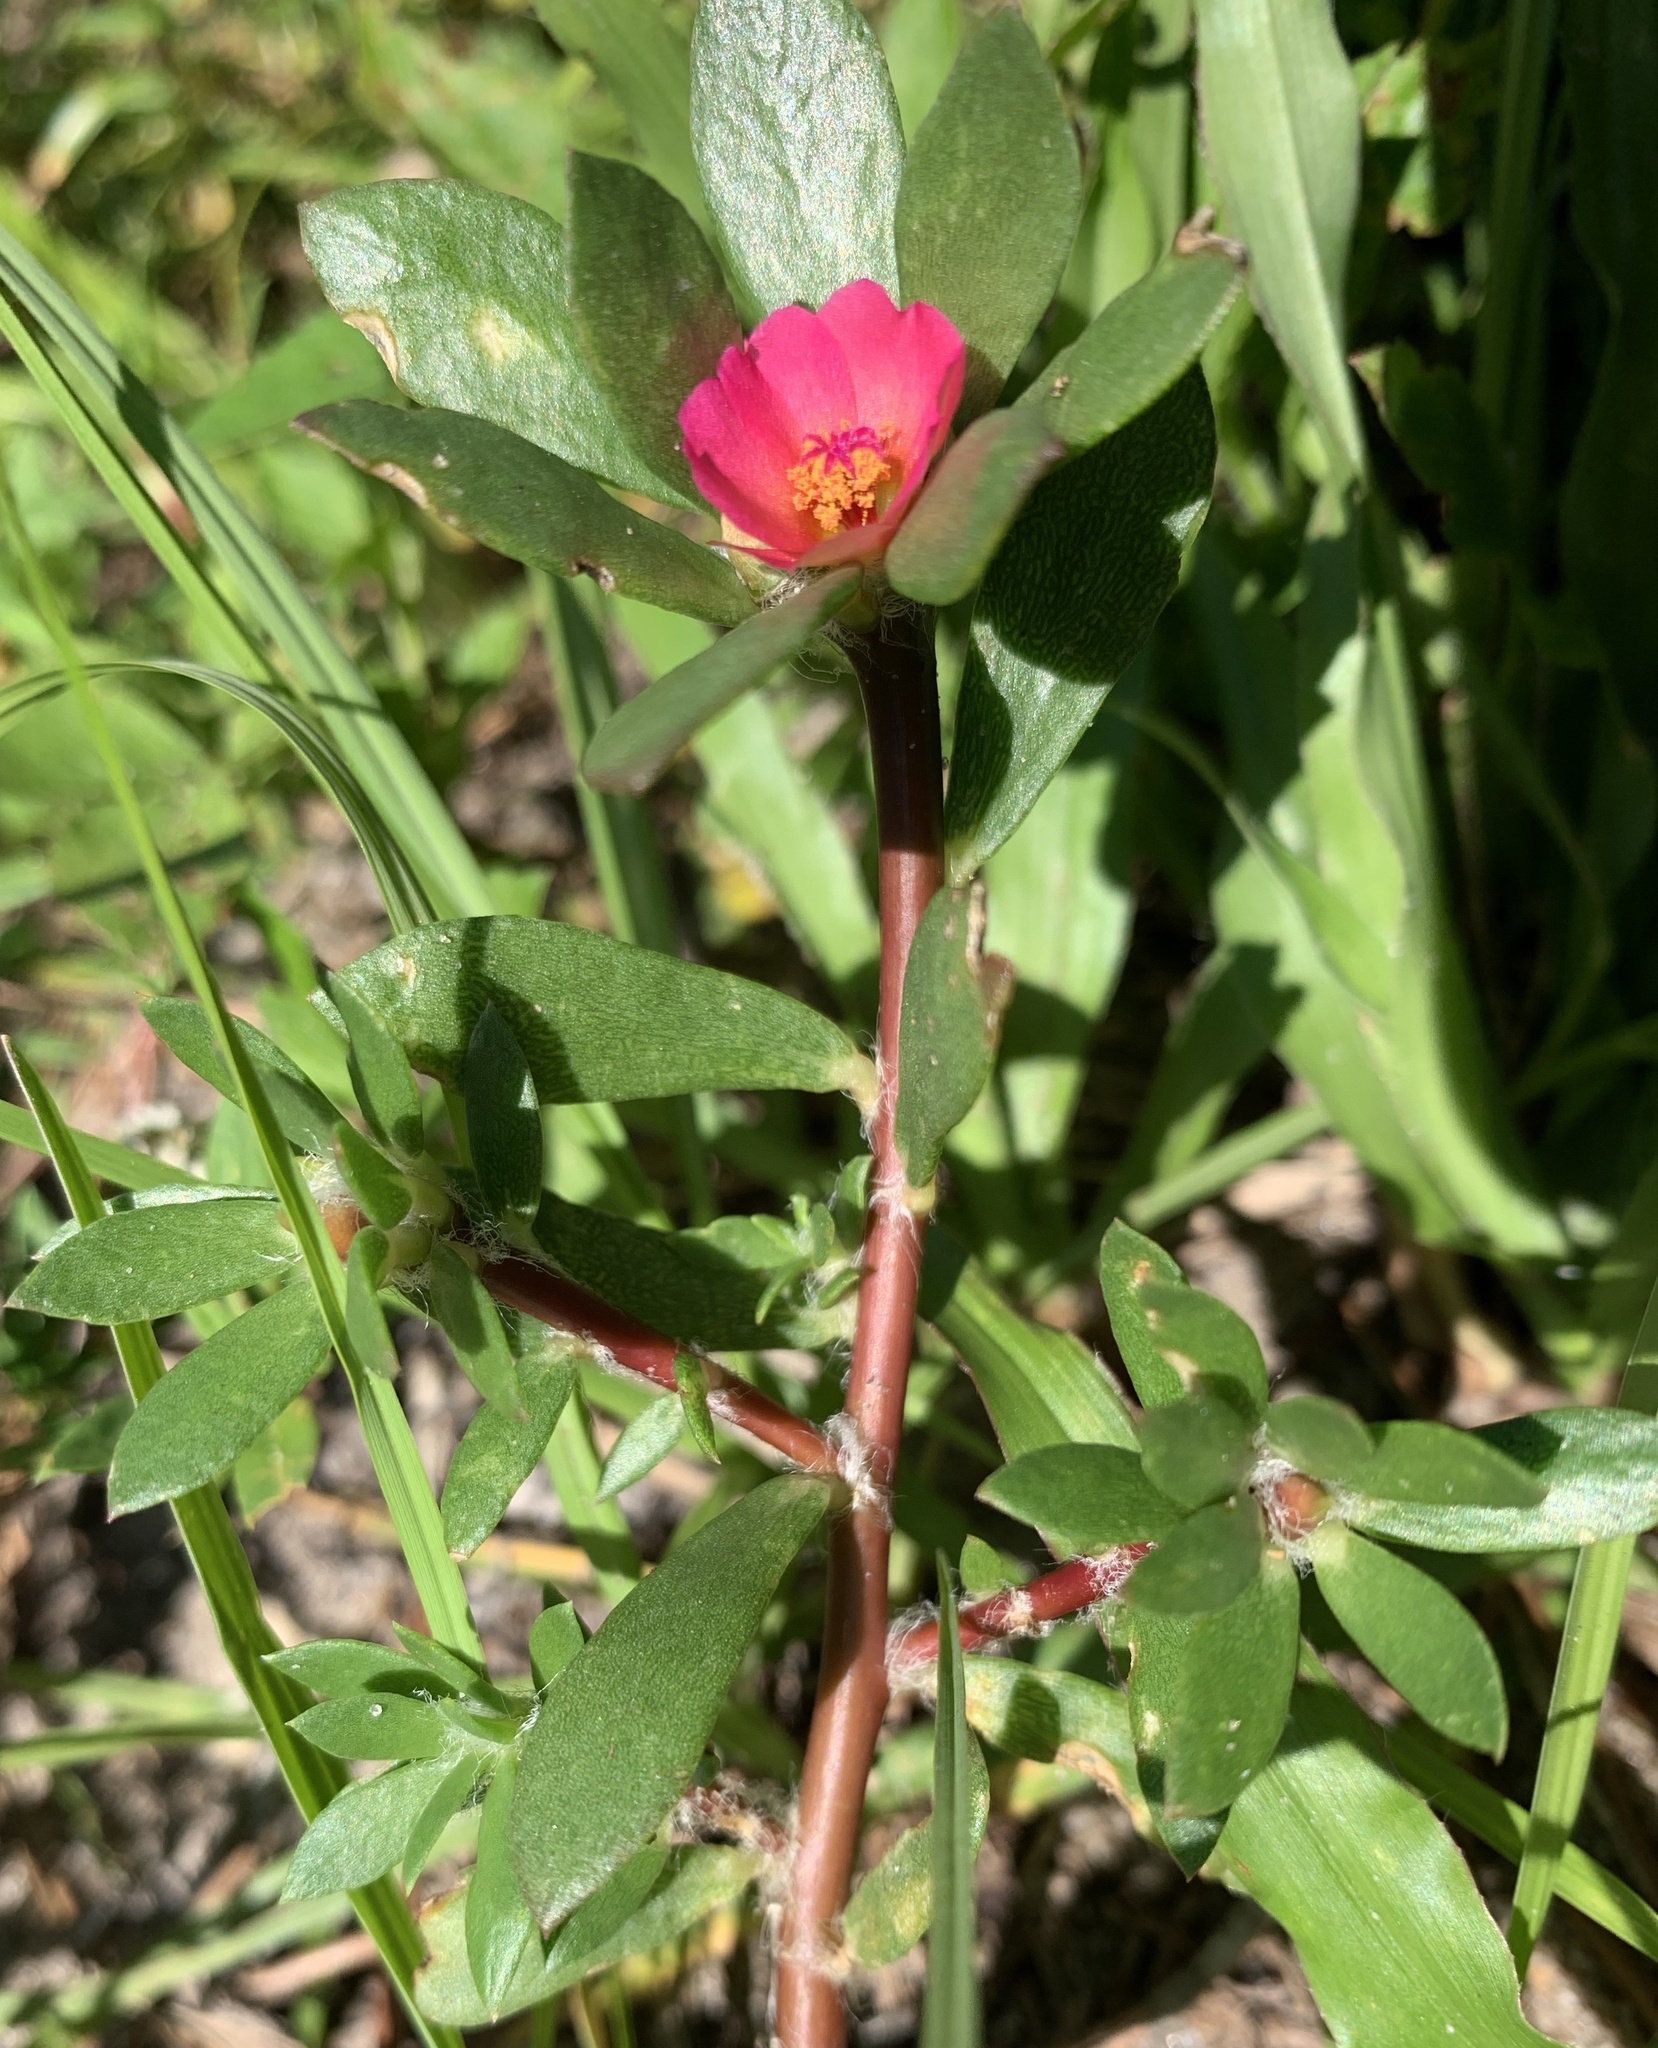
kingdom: Plantae
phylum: Tracheophyta
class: Magnoliopsida
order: Caryophyllales
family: Portulacaceae
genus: Portulaca
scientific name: Portulaca amilis
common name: Paraguayan purslane
